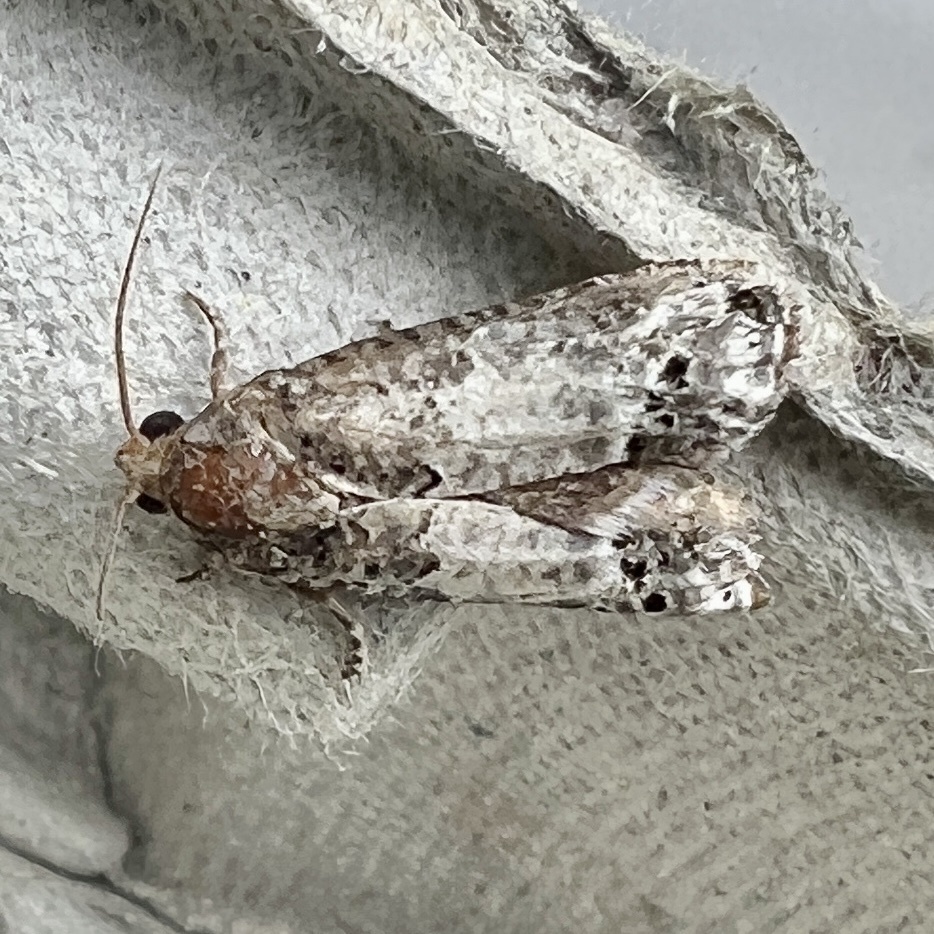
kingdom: Animalia
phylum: Arthropoda
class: Insecta
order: Lepidoptera
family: Tortricidae
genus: Epiblema
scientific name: Epiblema carolinana
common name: Gray-blotched epiblema moth
